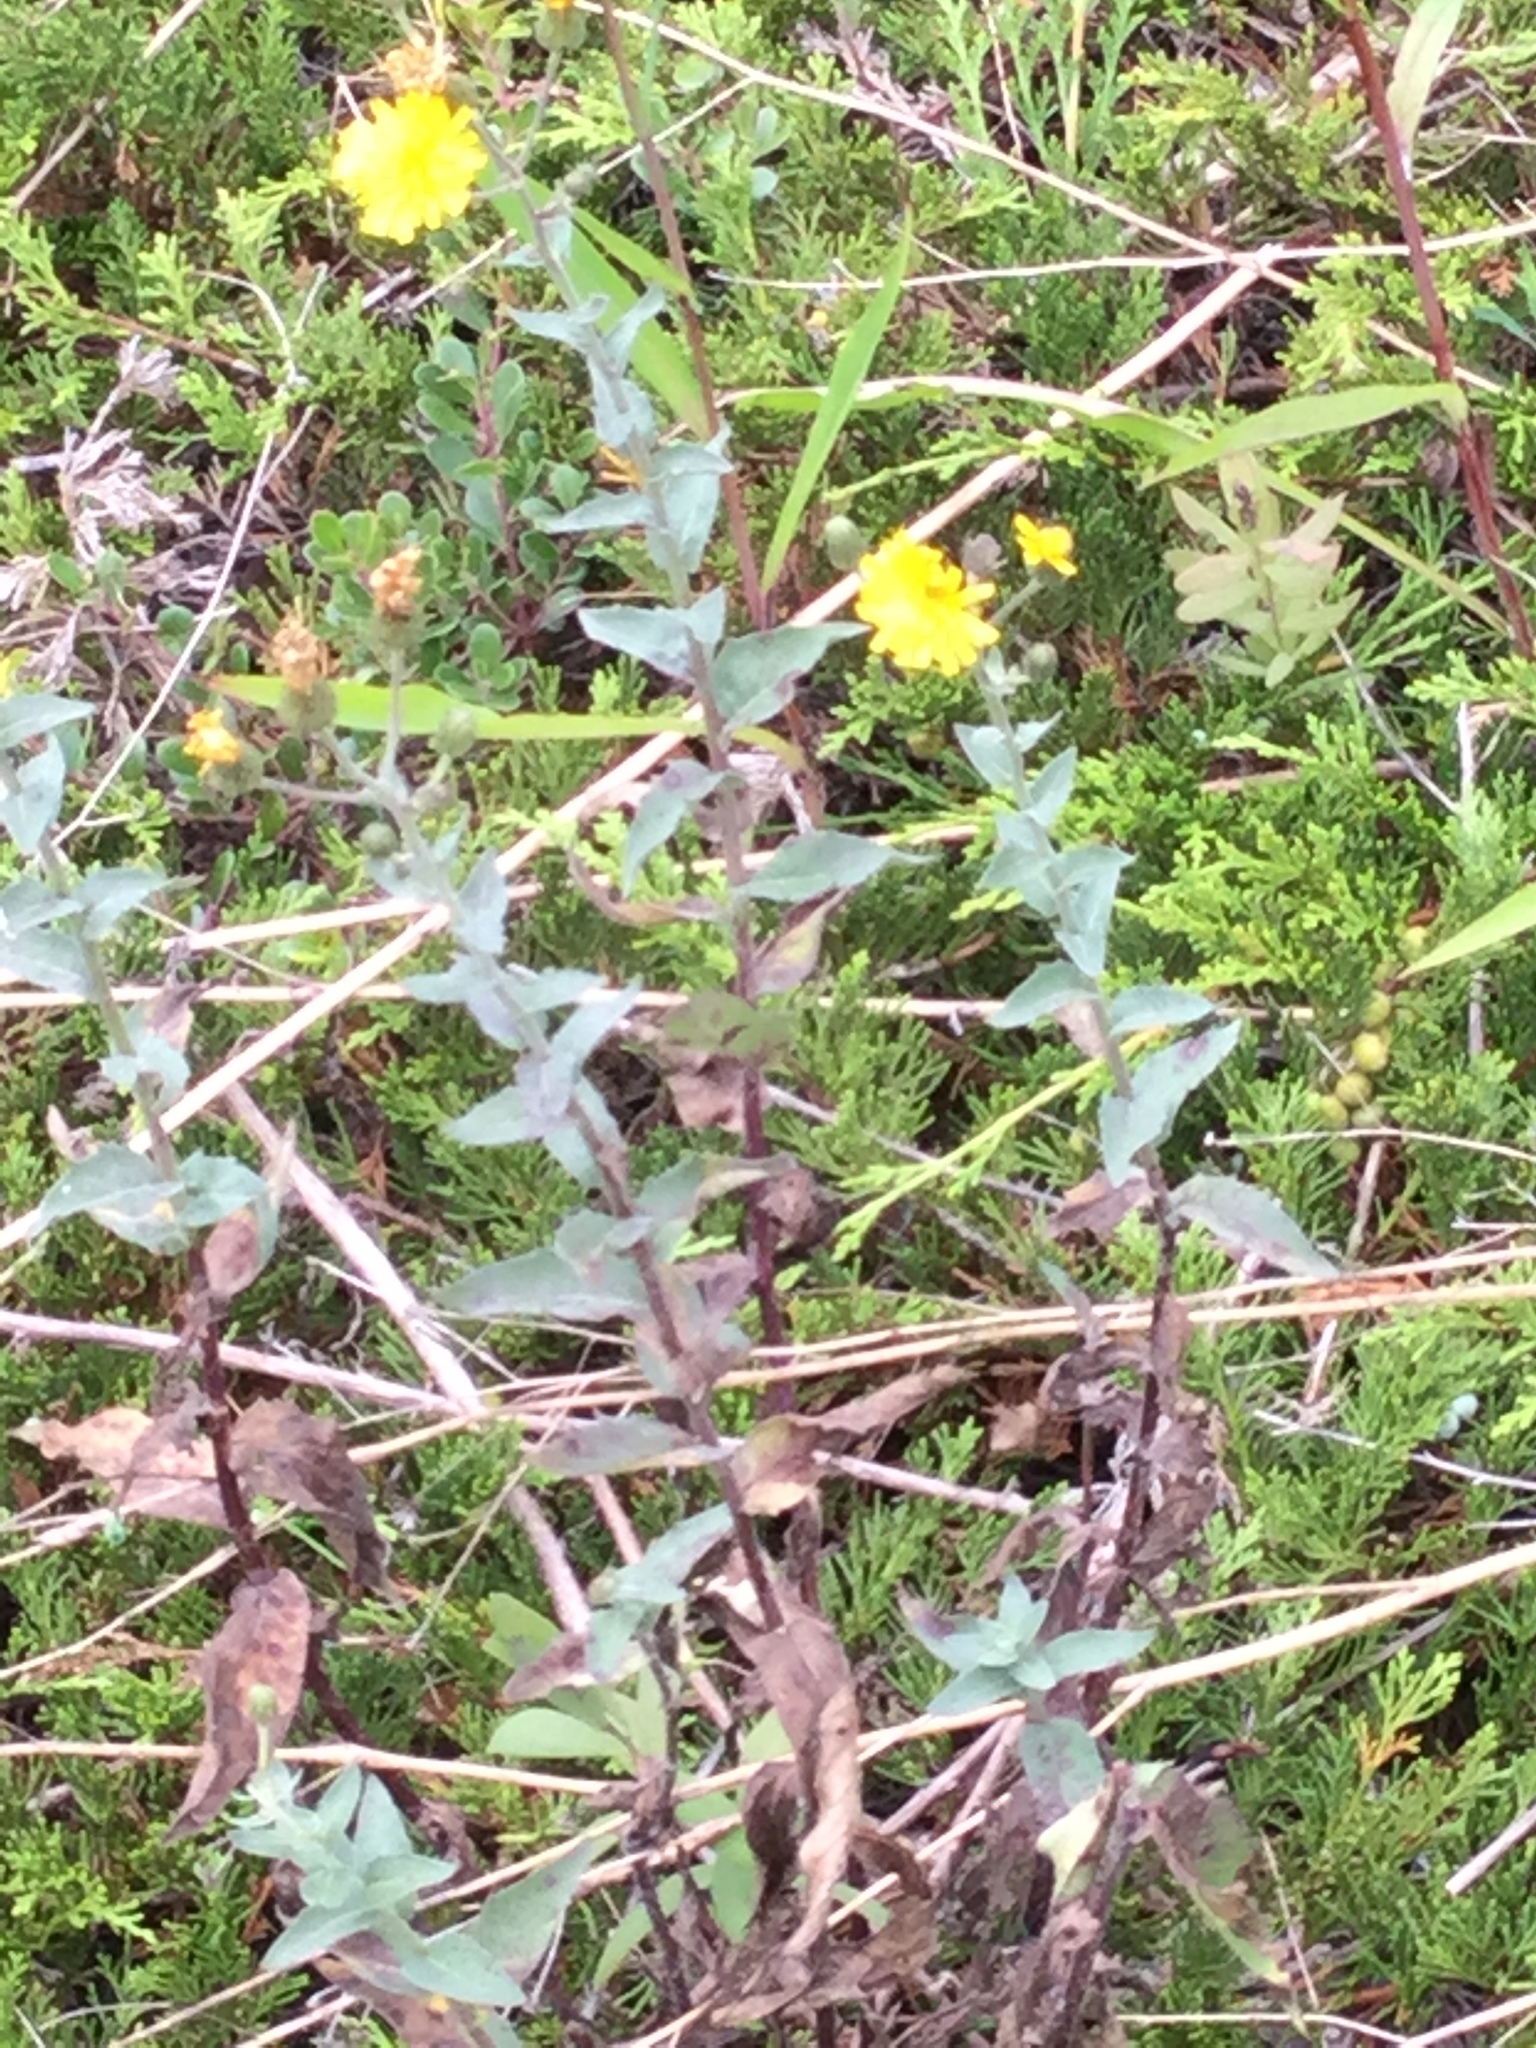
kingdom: Plantae
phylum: Tracheophyta
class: Magnoliopsida
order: Asterales
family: Asteraceae
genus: Hieracium
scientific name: Hieracium umbellatum
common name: Northern hawkweed
